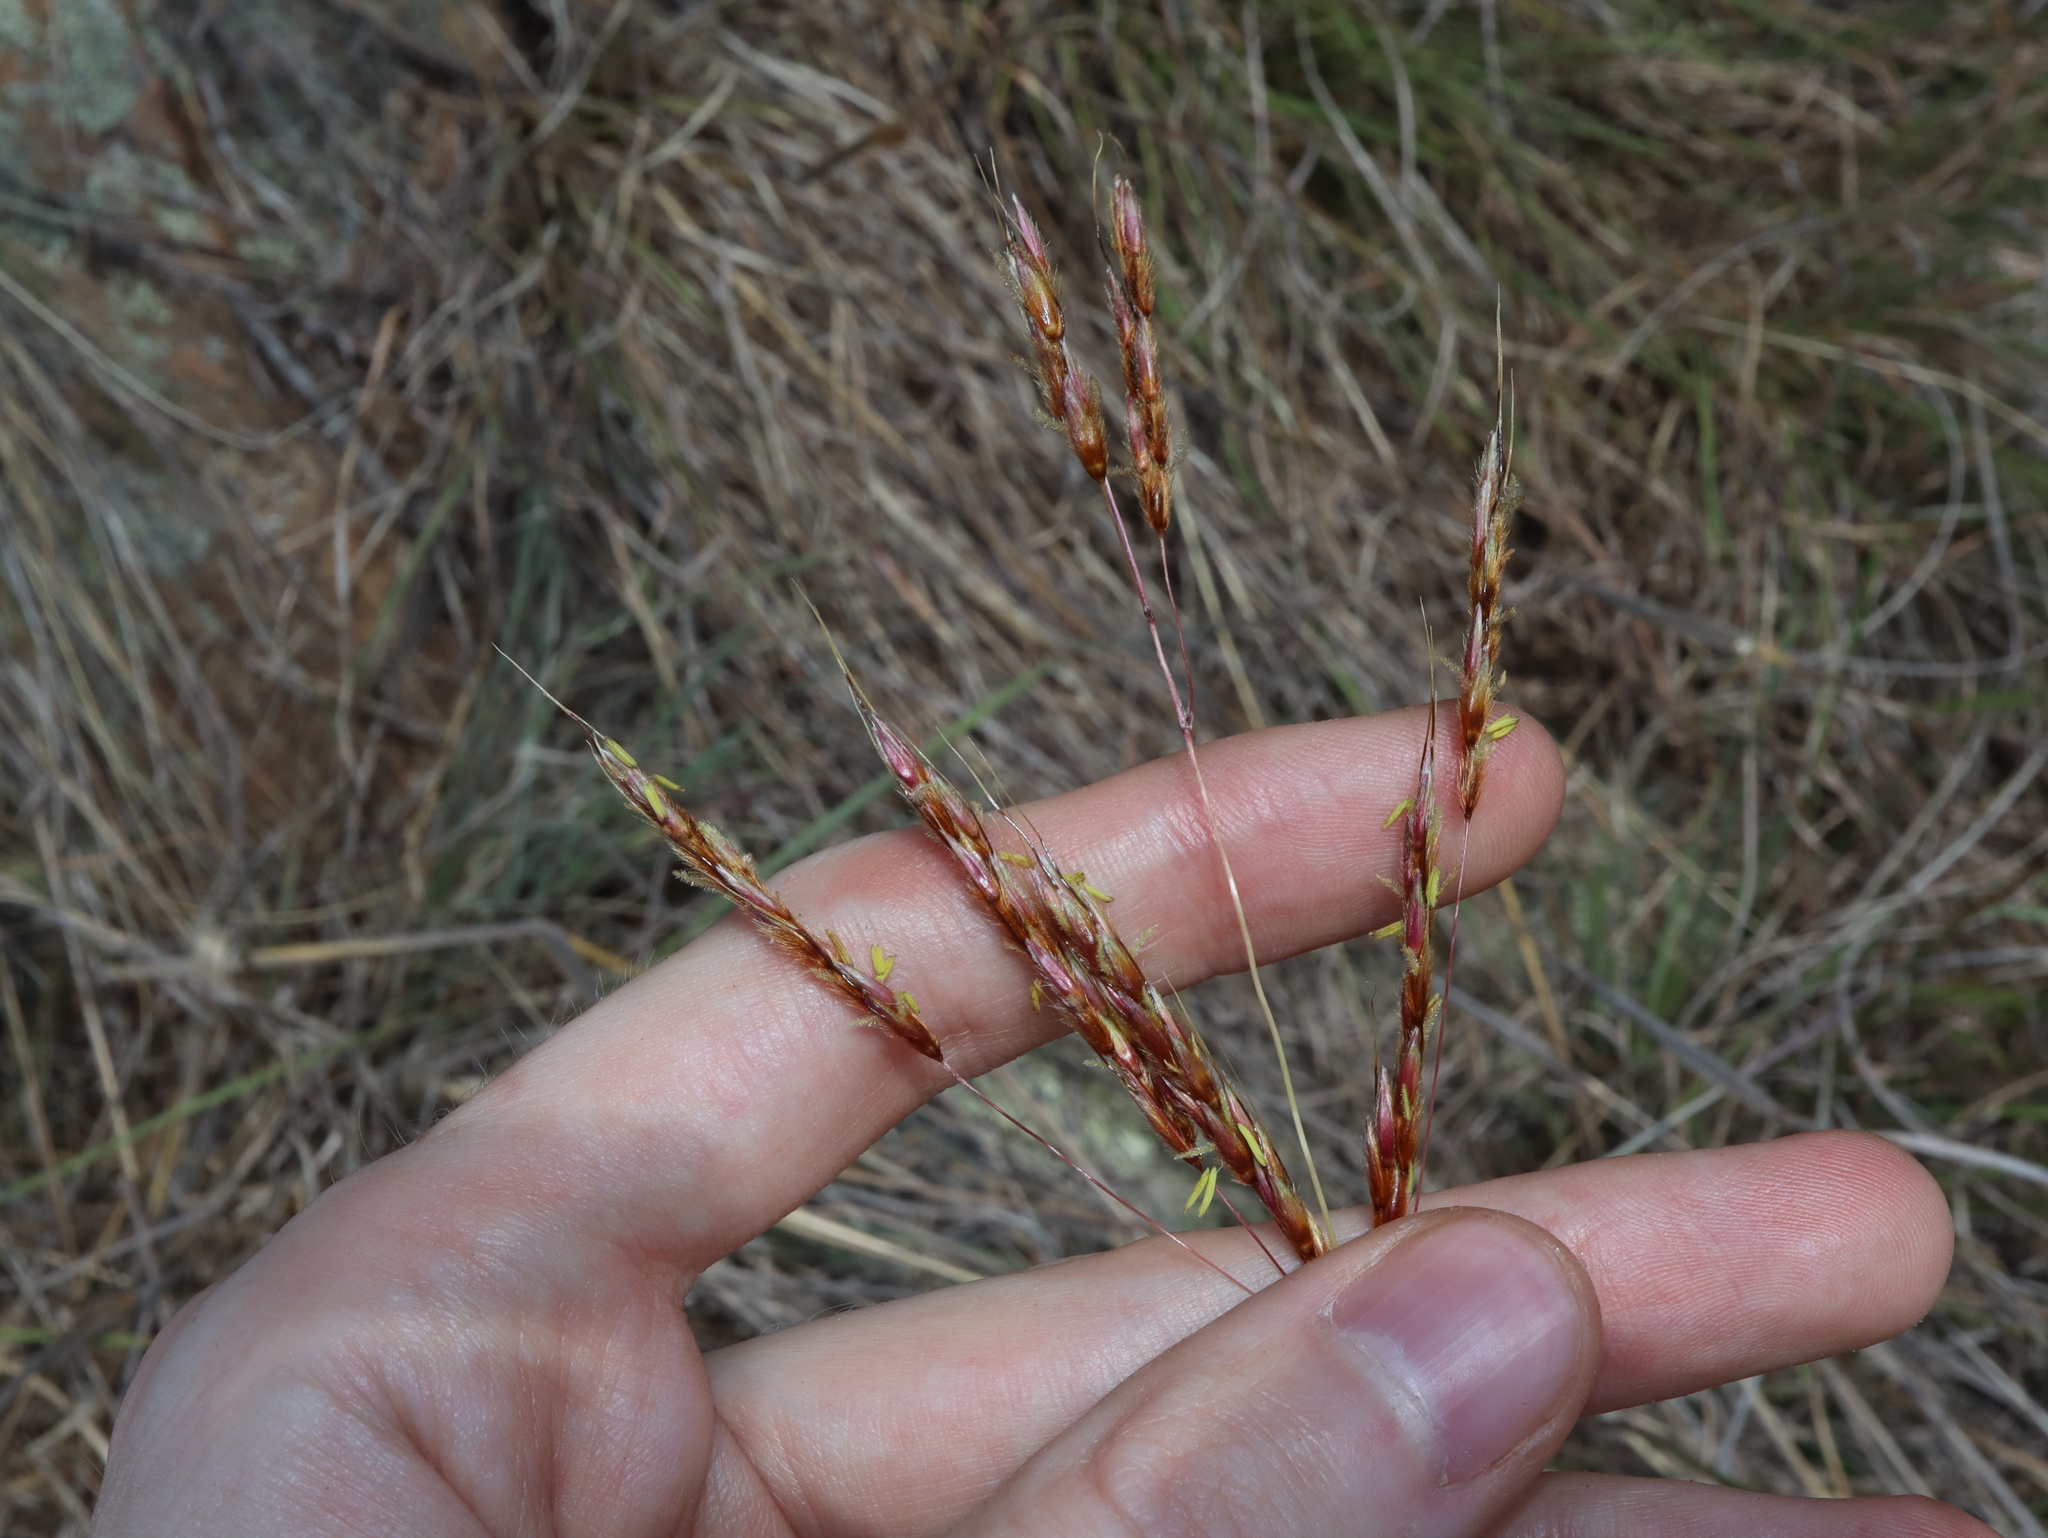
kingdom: Plantae
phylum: Tracheophyta
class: Liliopsida
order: Poales
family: Poaceae
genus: Sarga
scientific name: Sarga leioclada
